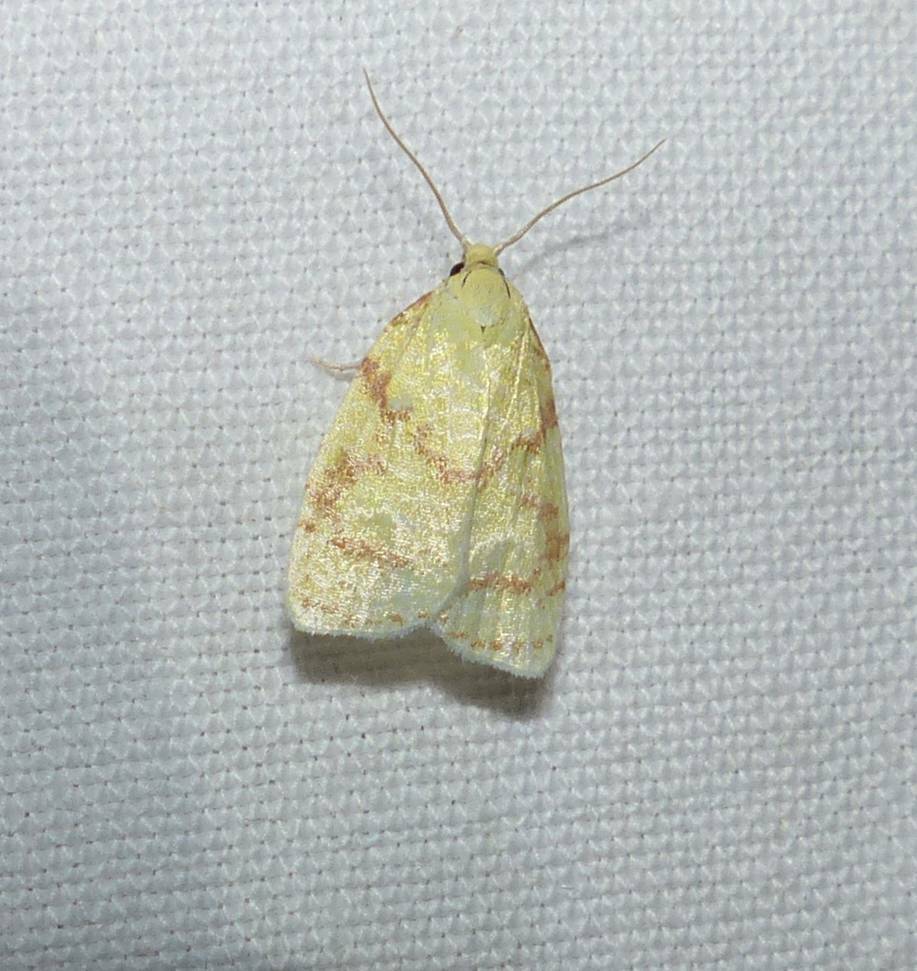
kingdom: Animalia
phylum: Arthropoda
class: Insecta
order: Lepidoptera
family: Tortricidae
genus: Cenopis
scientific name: Cenopis pettitana
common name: Maple-basswood leafroller moth
